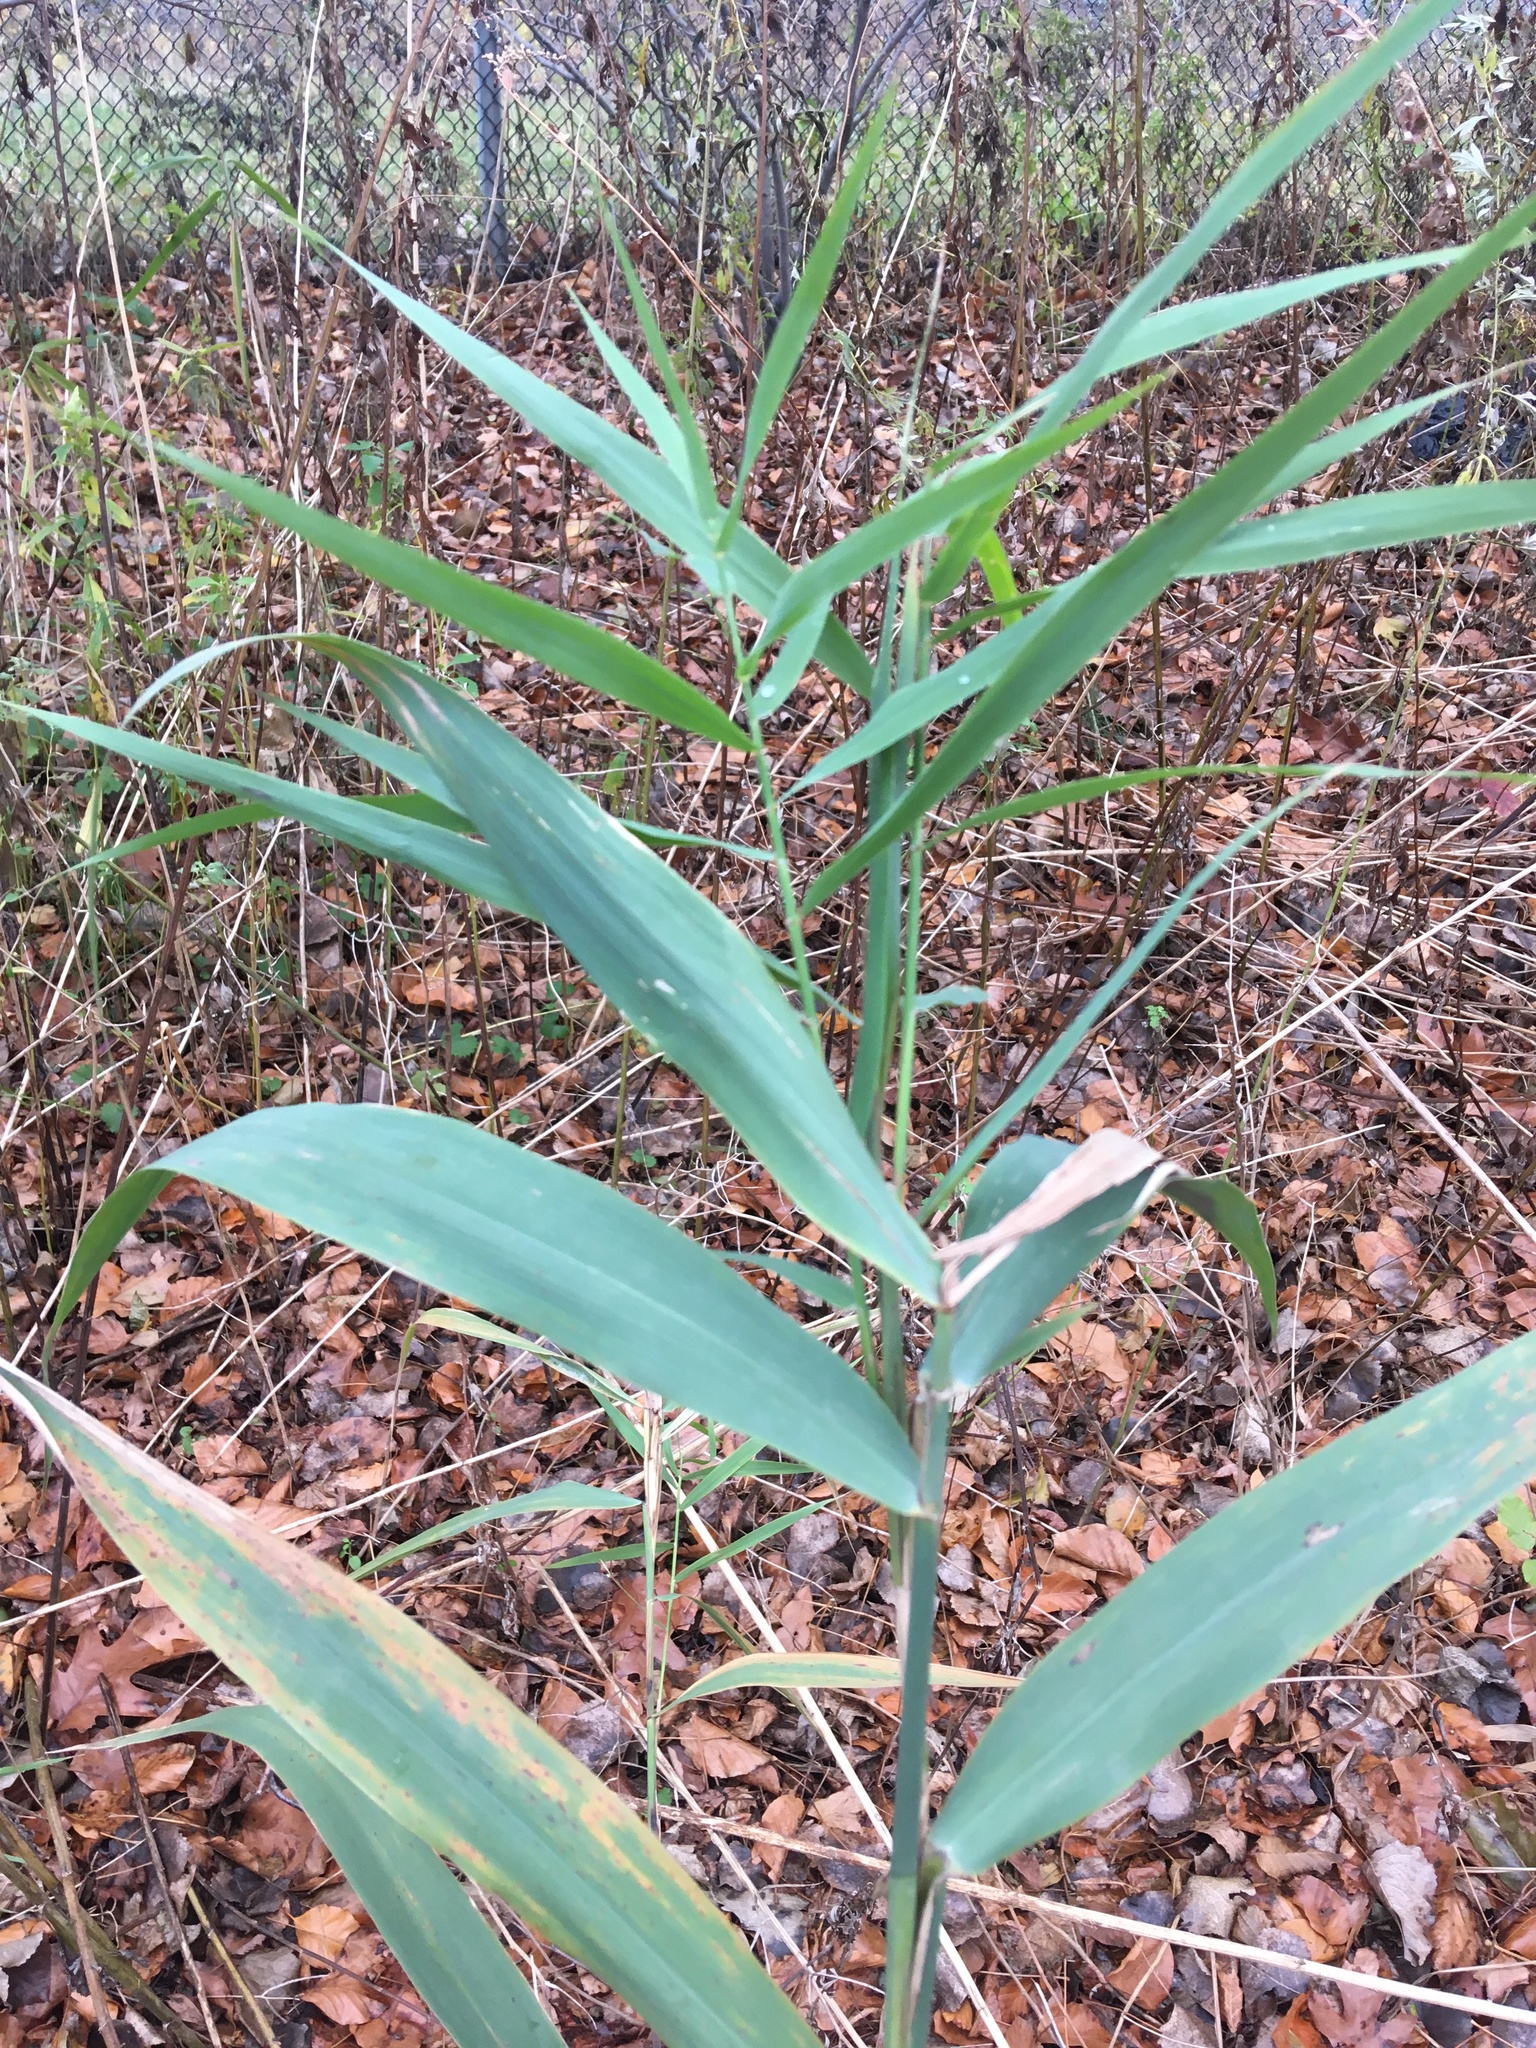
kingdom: Plantae
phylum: Tracheophyta
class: Liliopsida
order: Poales
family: Poaceae
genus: Phragmites
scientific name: Phragmites australis
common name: Common reed
